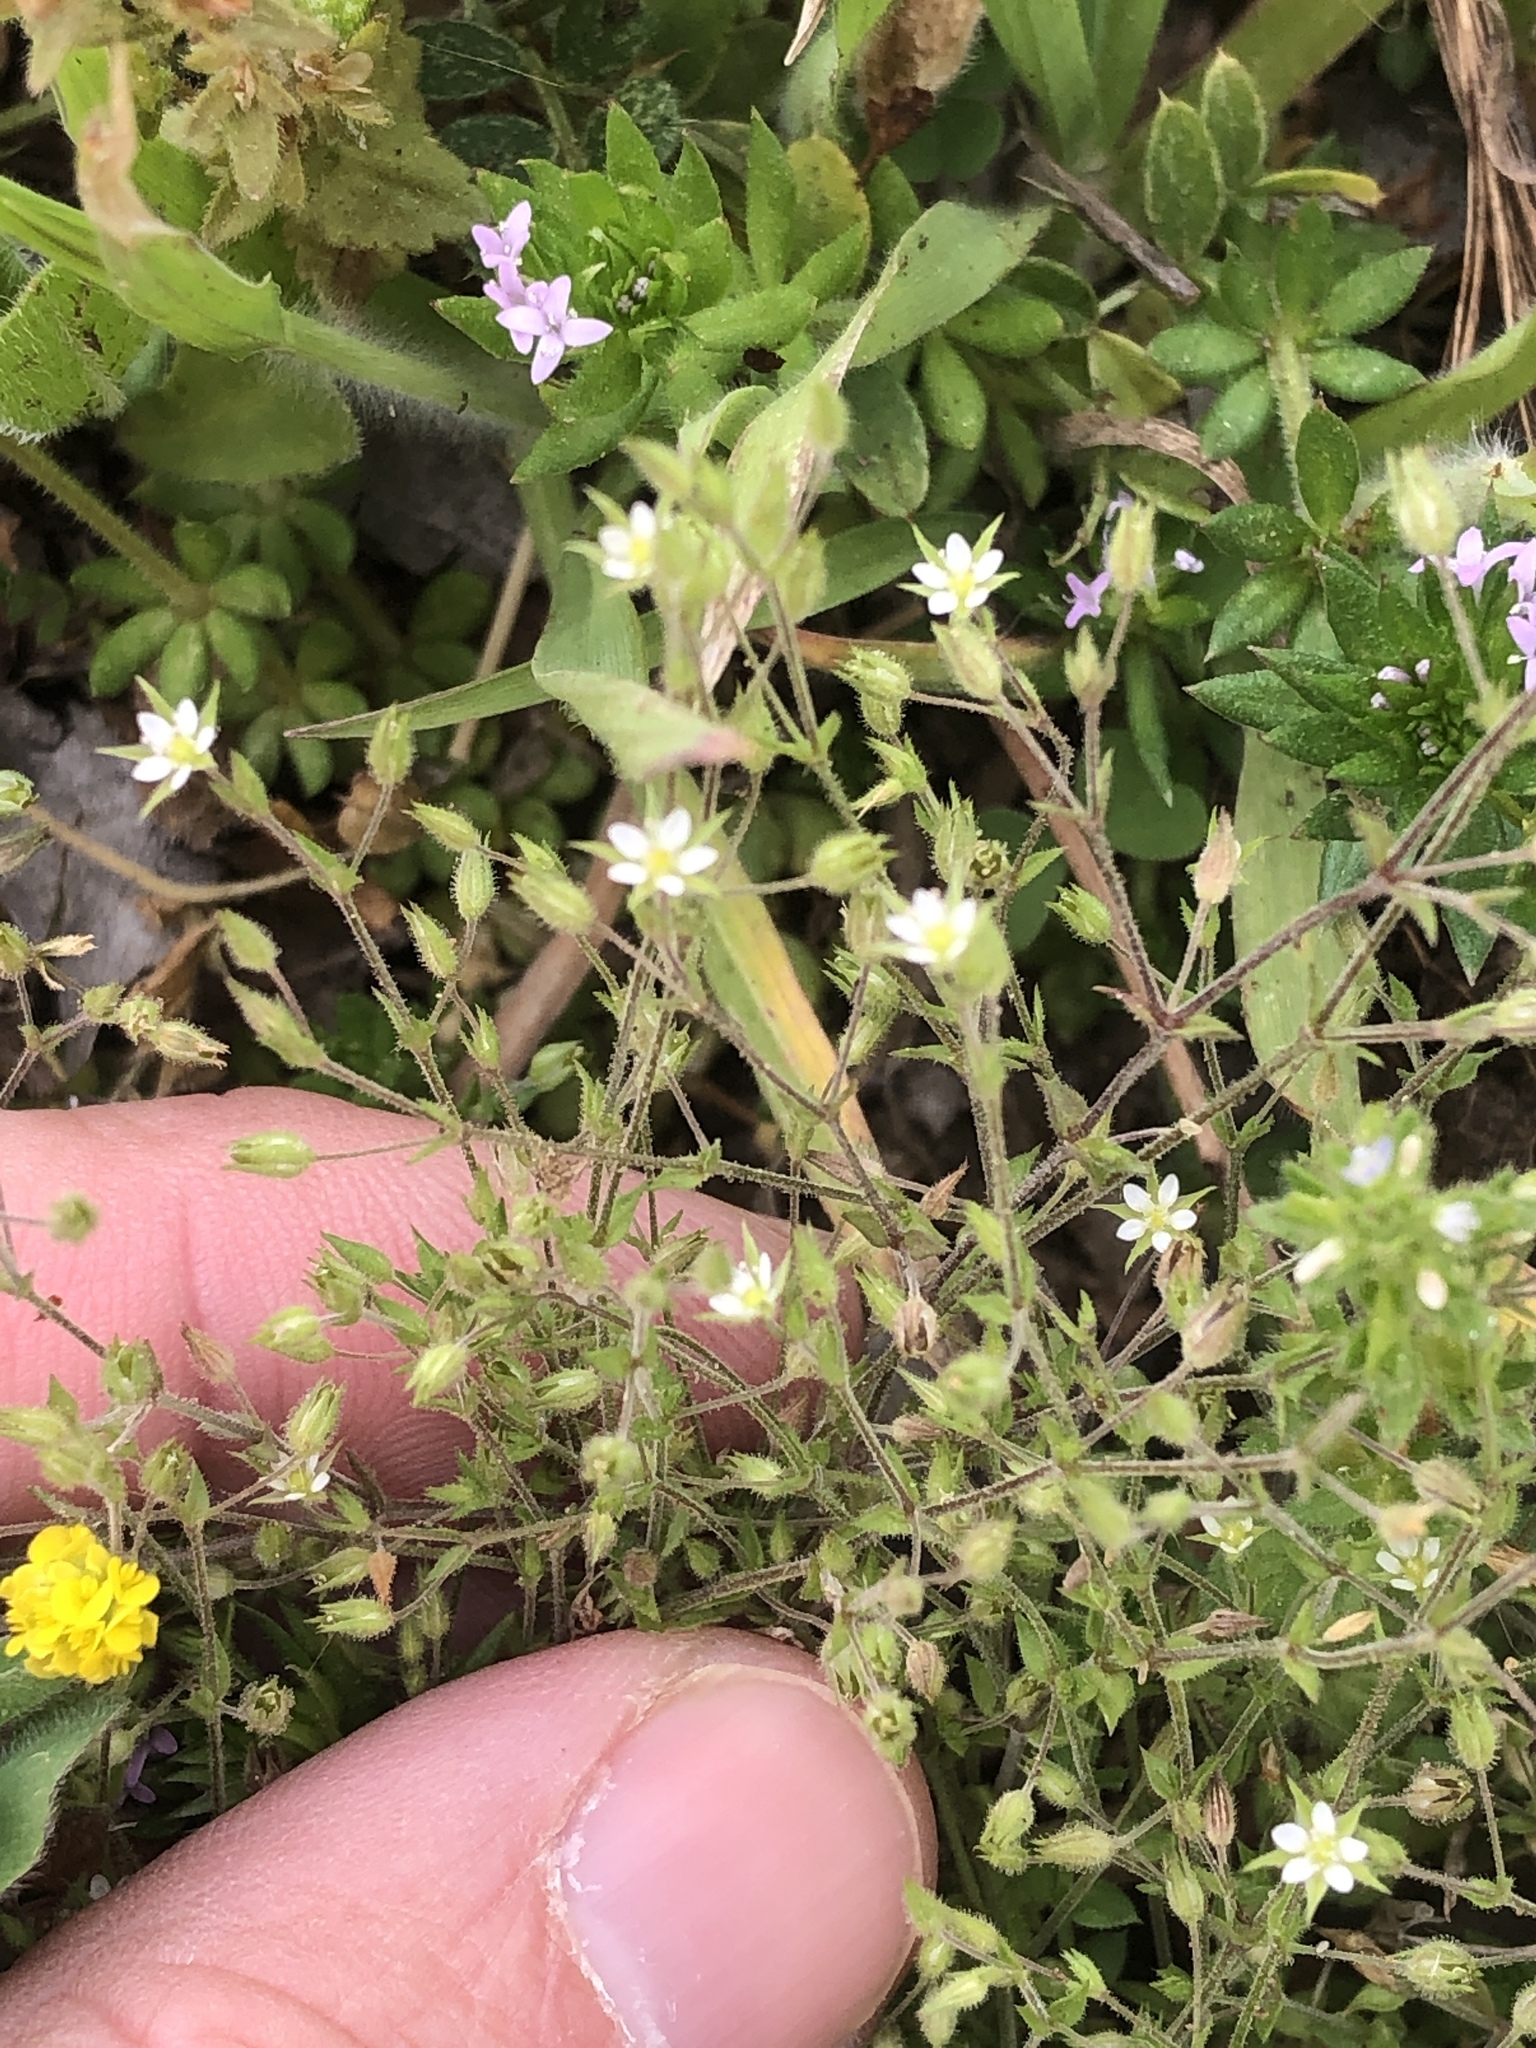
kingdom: Plantae
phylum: Tracheophyta
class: Magnoliopsida
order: Caryophyllales
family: Caryophyllaceae
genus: Arenaria
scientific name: Arenaria serpyllifolia
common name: Thyme-leaved sandwort
